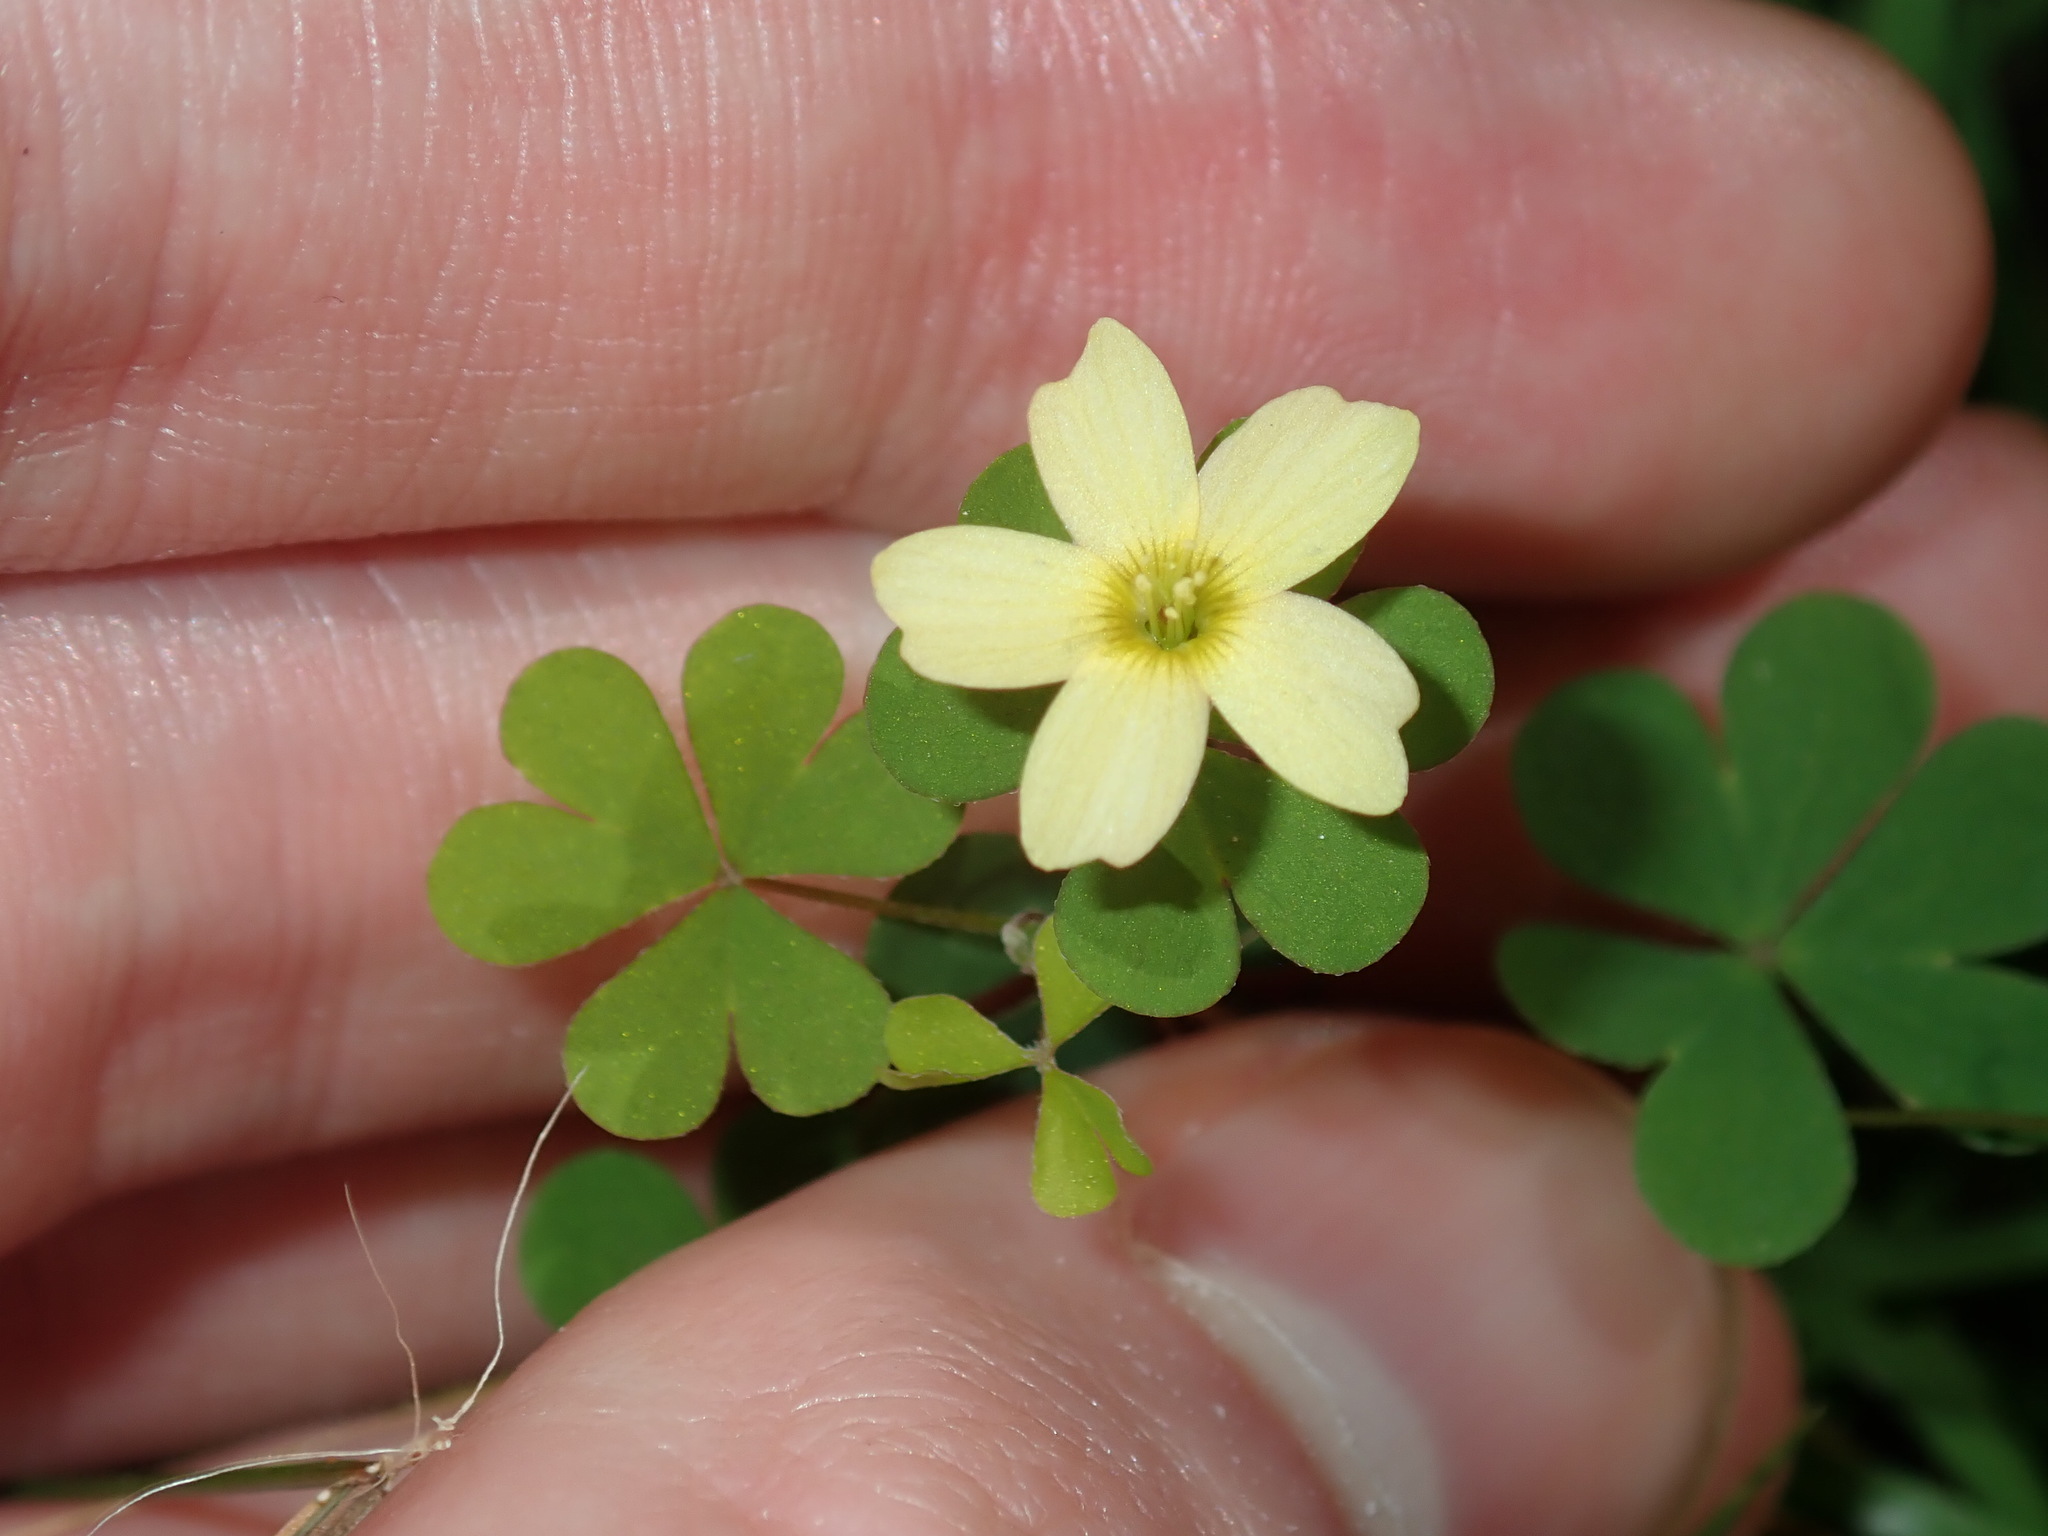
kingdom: Plantae
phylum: Tracheophyta
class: Magnoliopsida
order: Oxalidales
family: Oxalidaceae
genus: Oxalis
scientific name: Oxalis corniculata
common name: Procumbent yellow-sorrel
